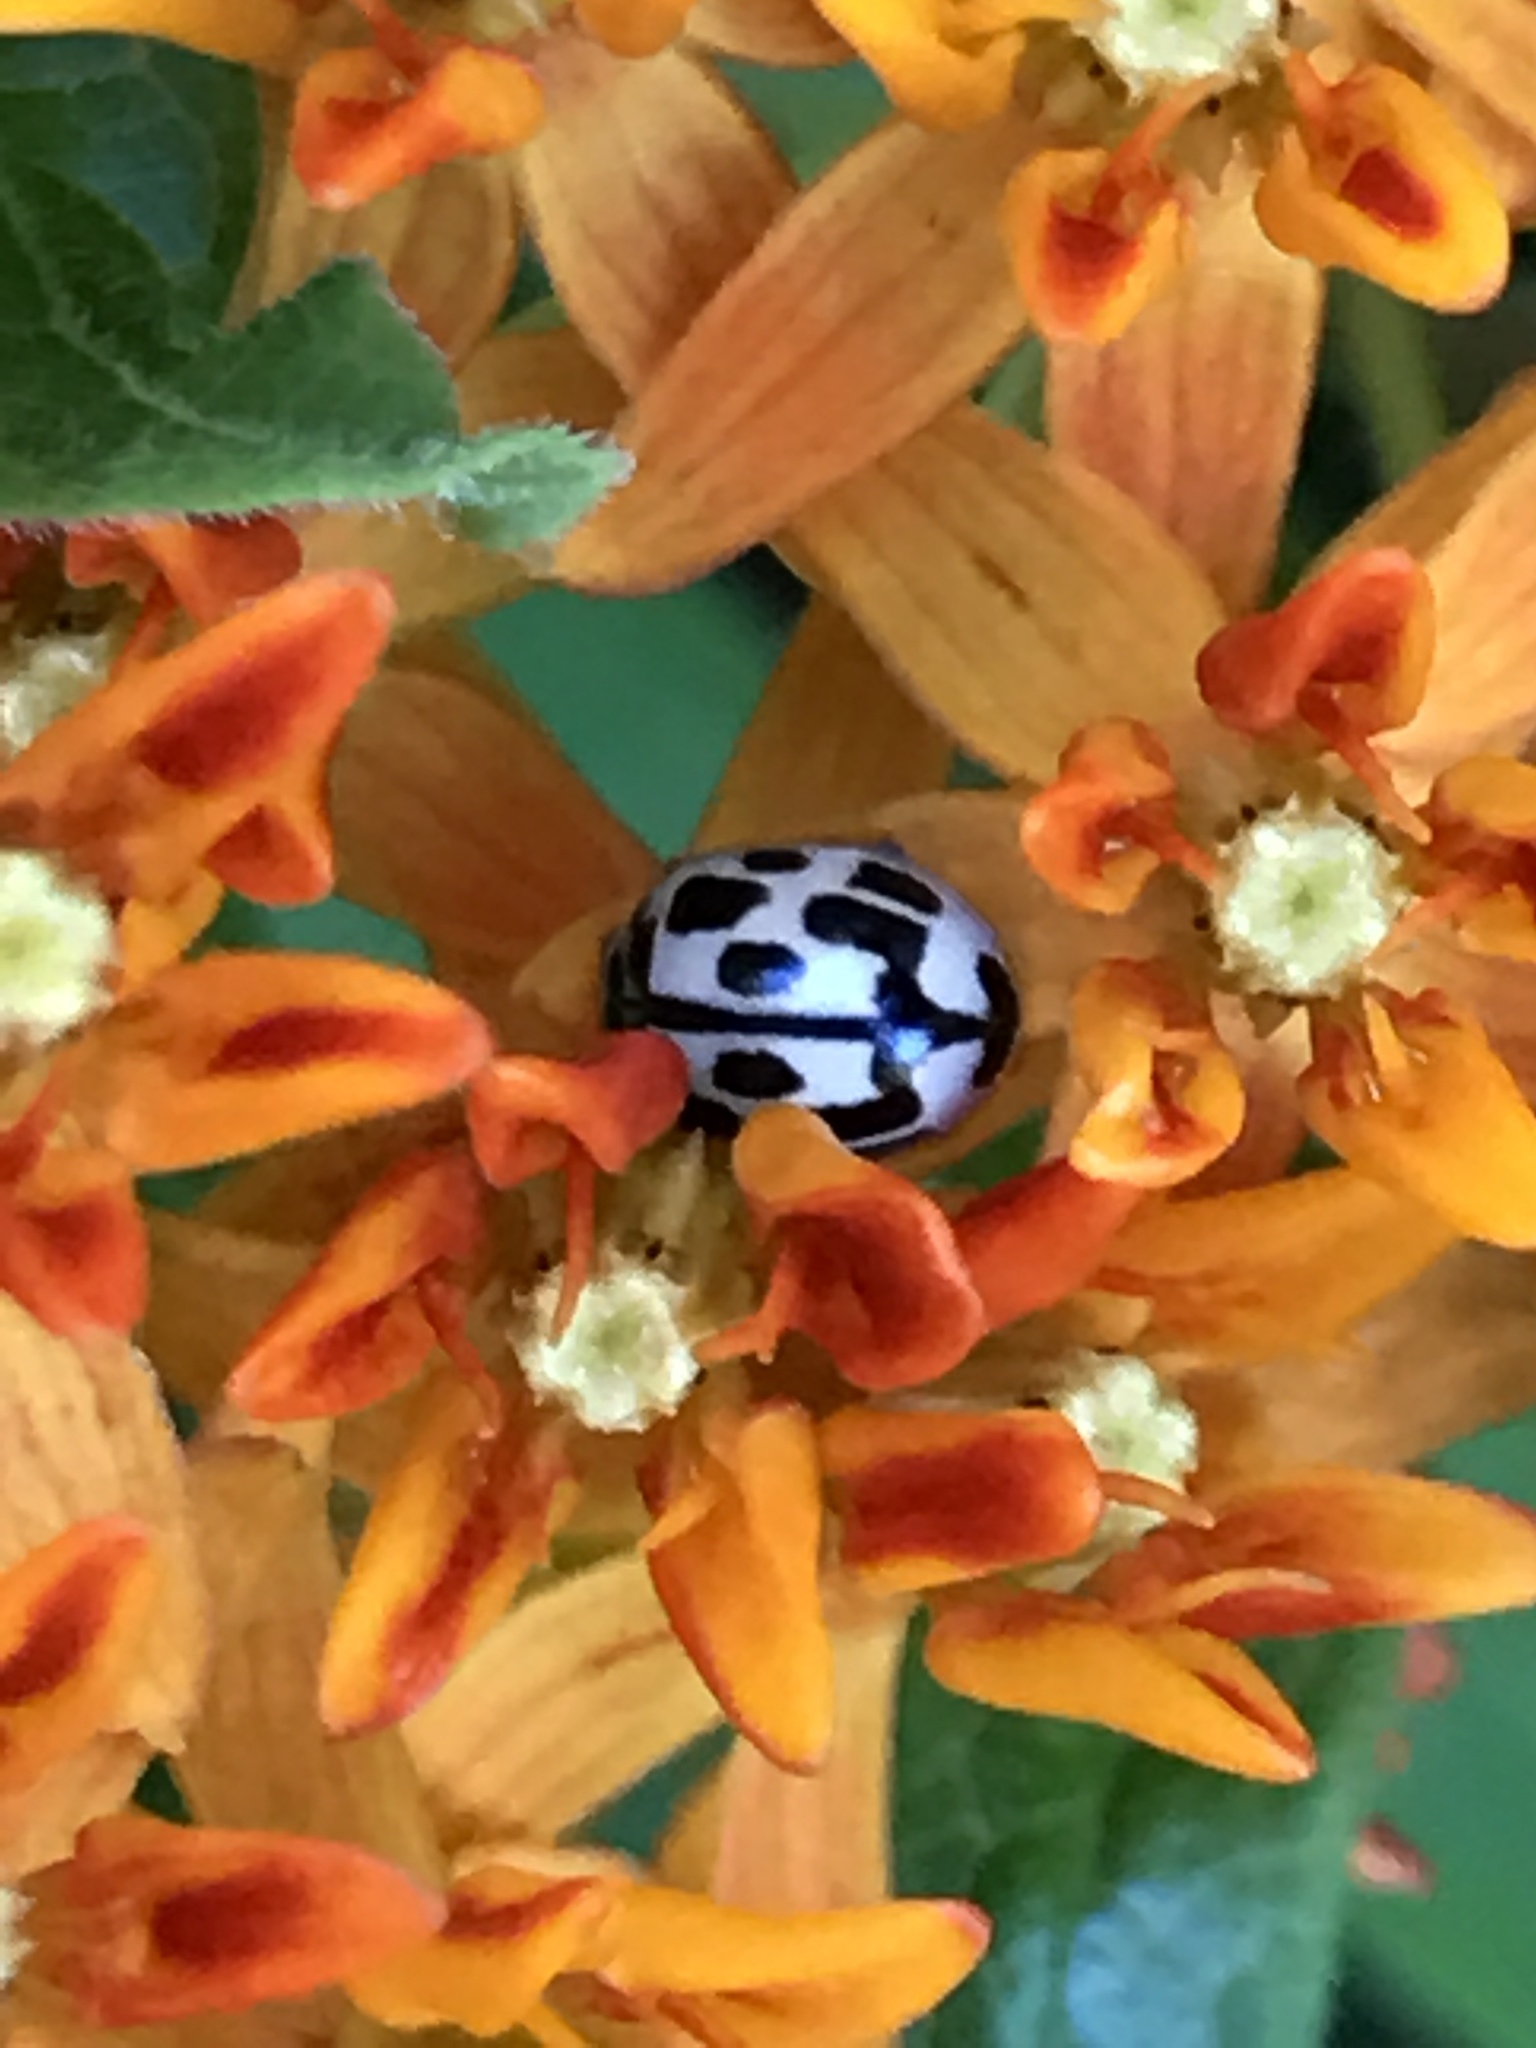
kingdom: Animalia
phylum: Arthropoda
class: Insecta
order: Coleoptera
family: Coccinellidae
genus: Propylaea
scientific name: Propylaea quatuordecimpunctata
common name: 14-spotted ladybird beetle
